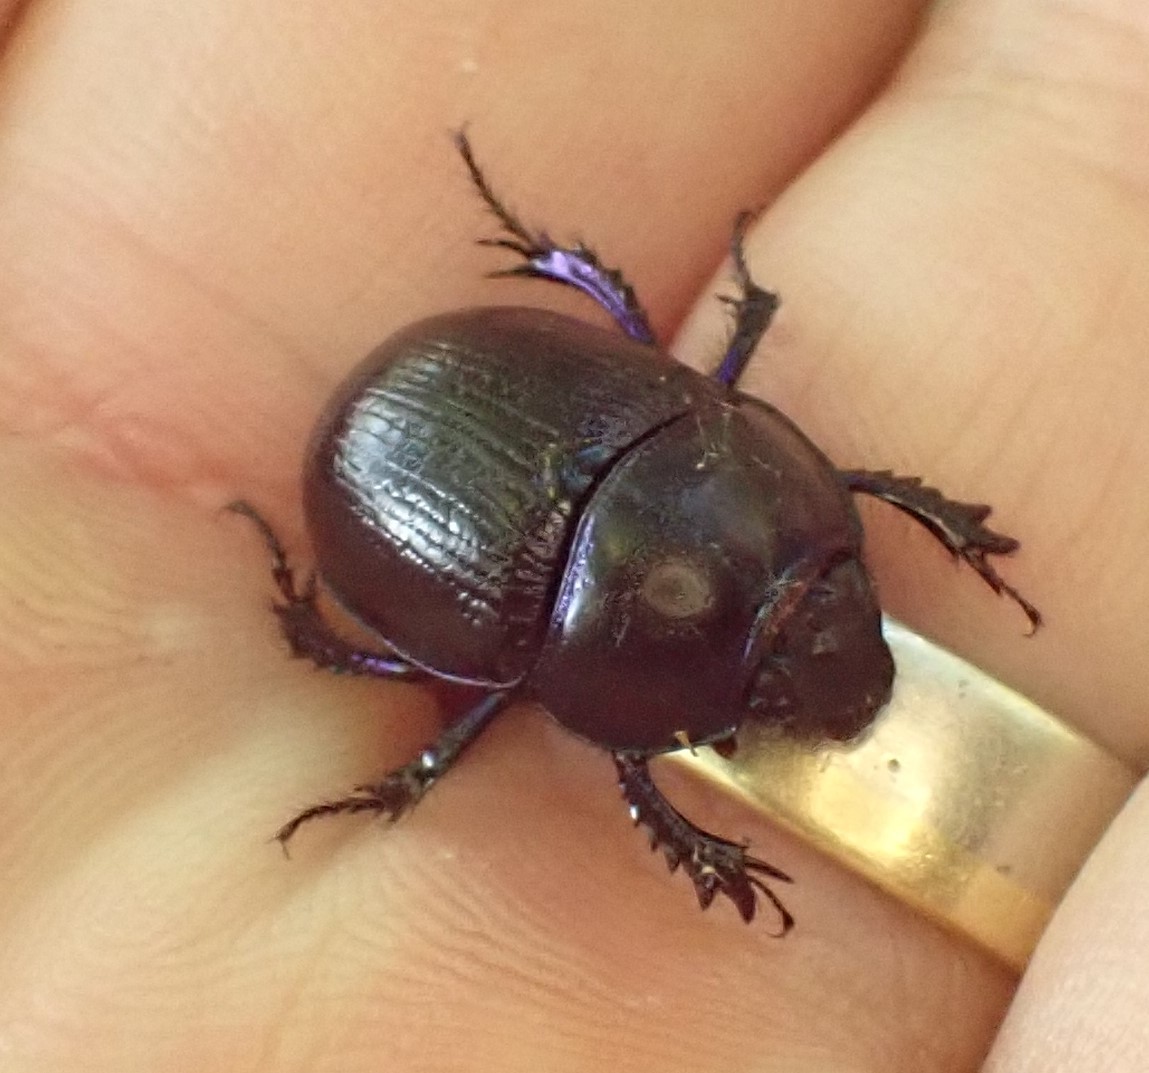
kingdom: Animalia
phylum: Arthropoda
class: Insecta
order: Coleoptera
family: Geotrupidae
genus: Anoplotrupes
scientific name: Anoplotrupes stercorosus
